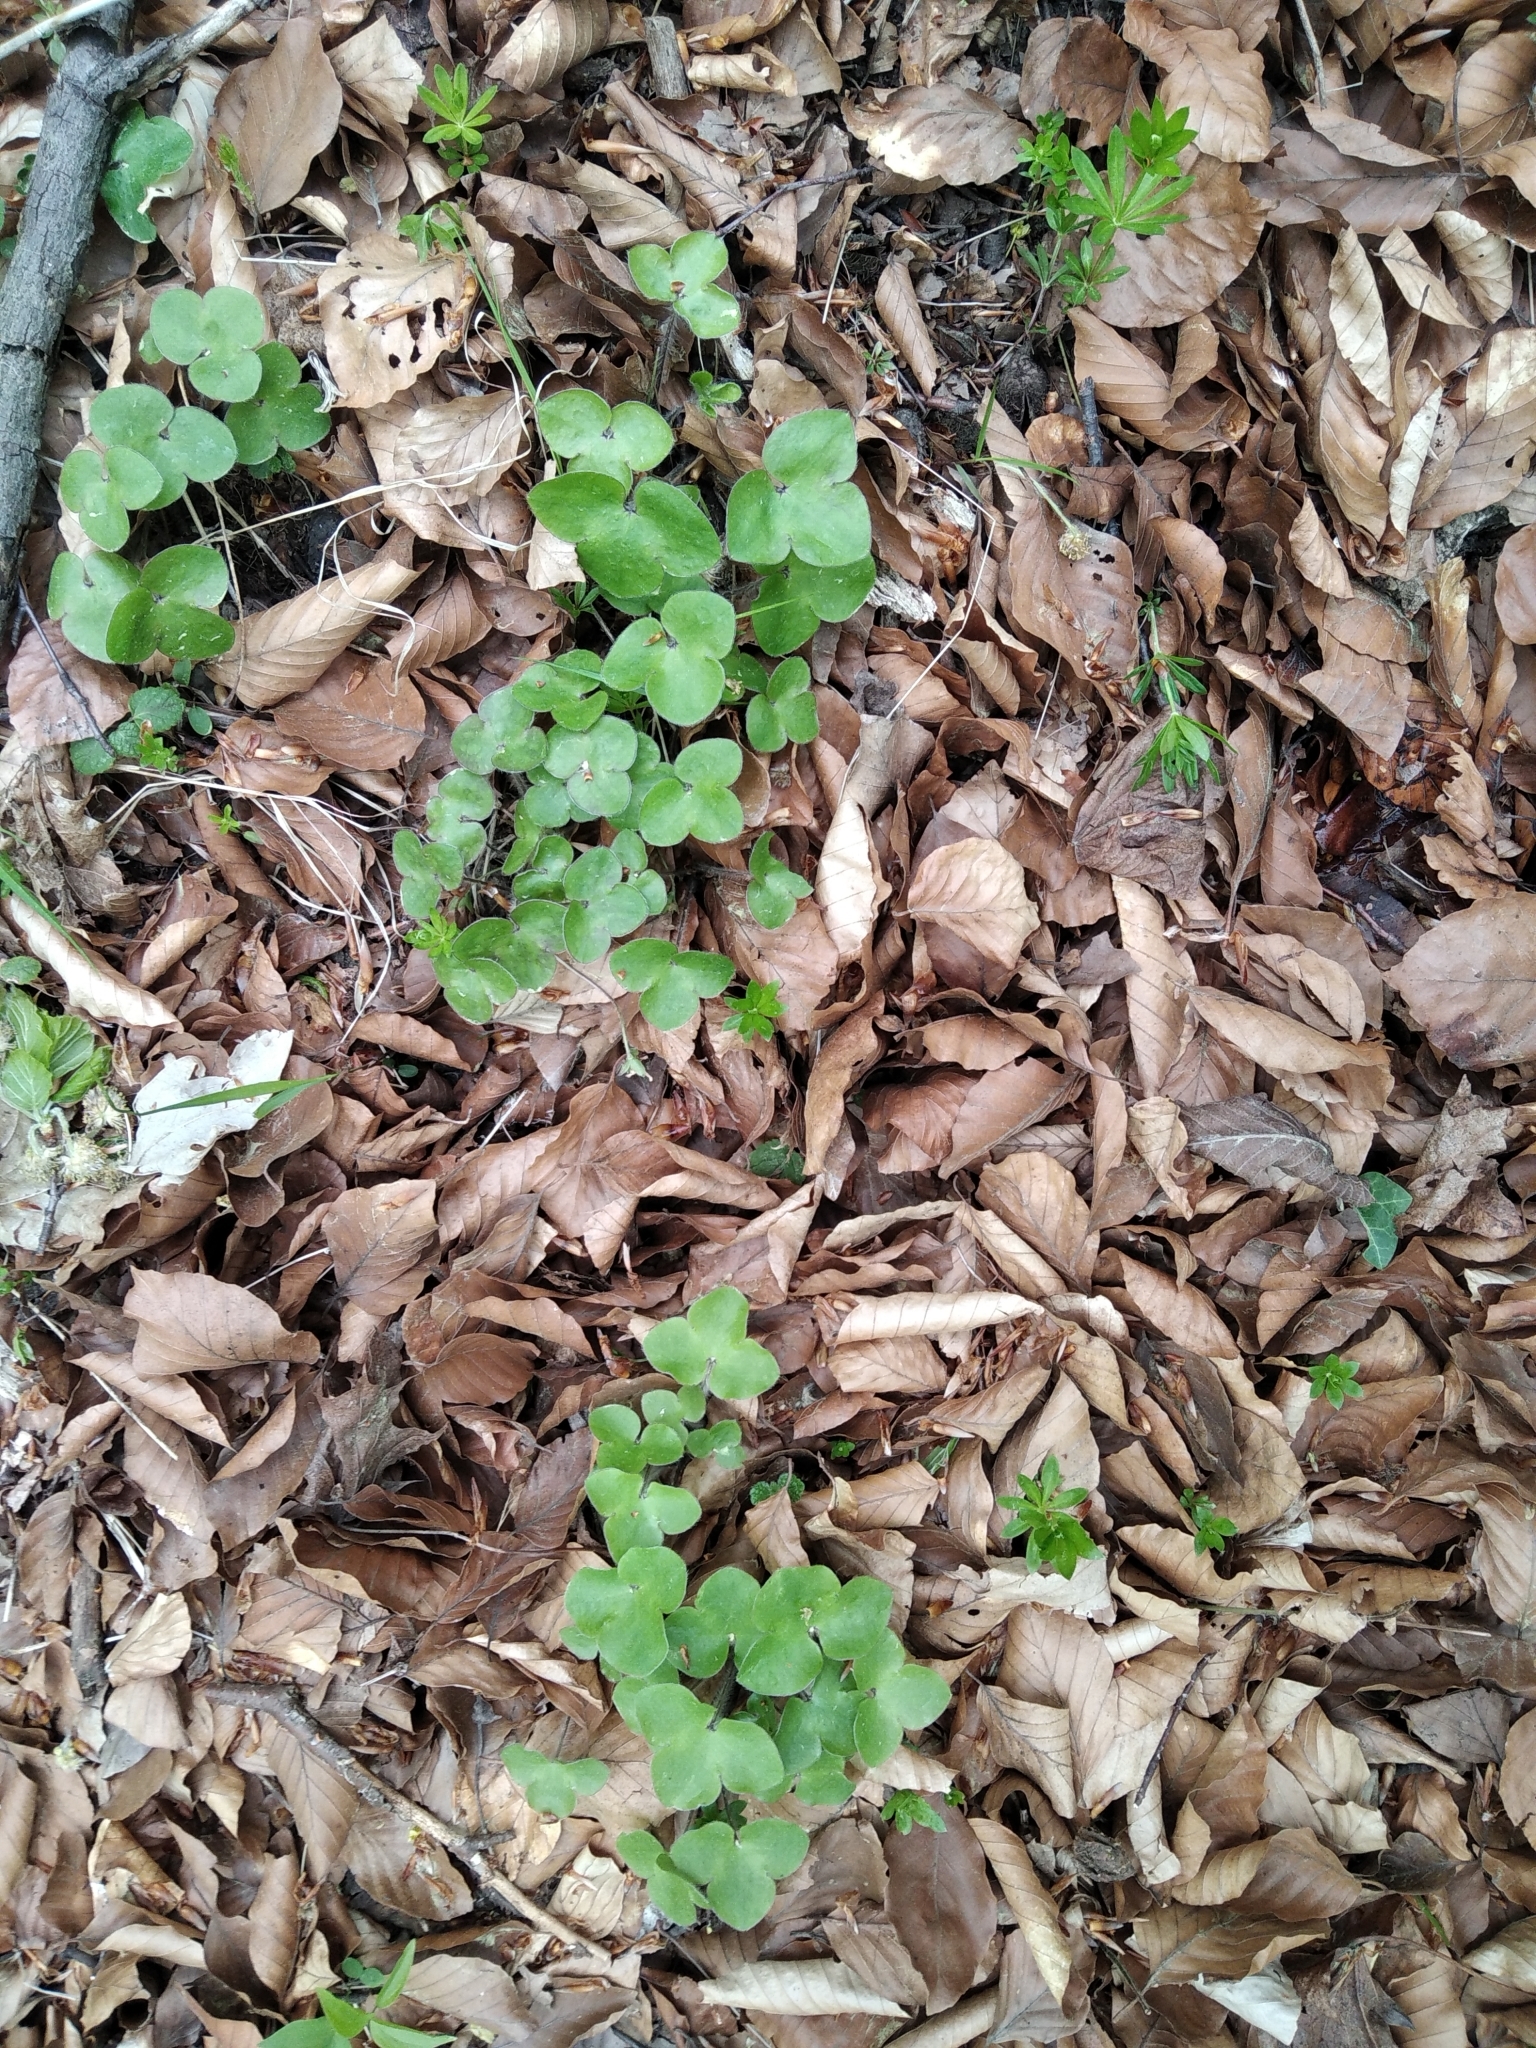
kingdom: Plantae
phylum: Tracheophyta
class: Magnoliopsida
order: Ranunculales
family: Ranunculaceae
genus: Hepatica
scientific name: Hepatica nobilis
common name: Liverleaf
